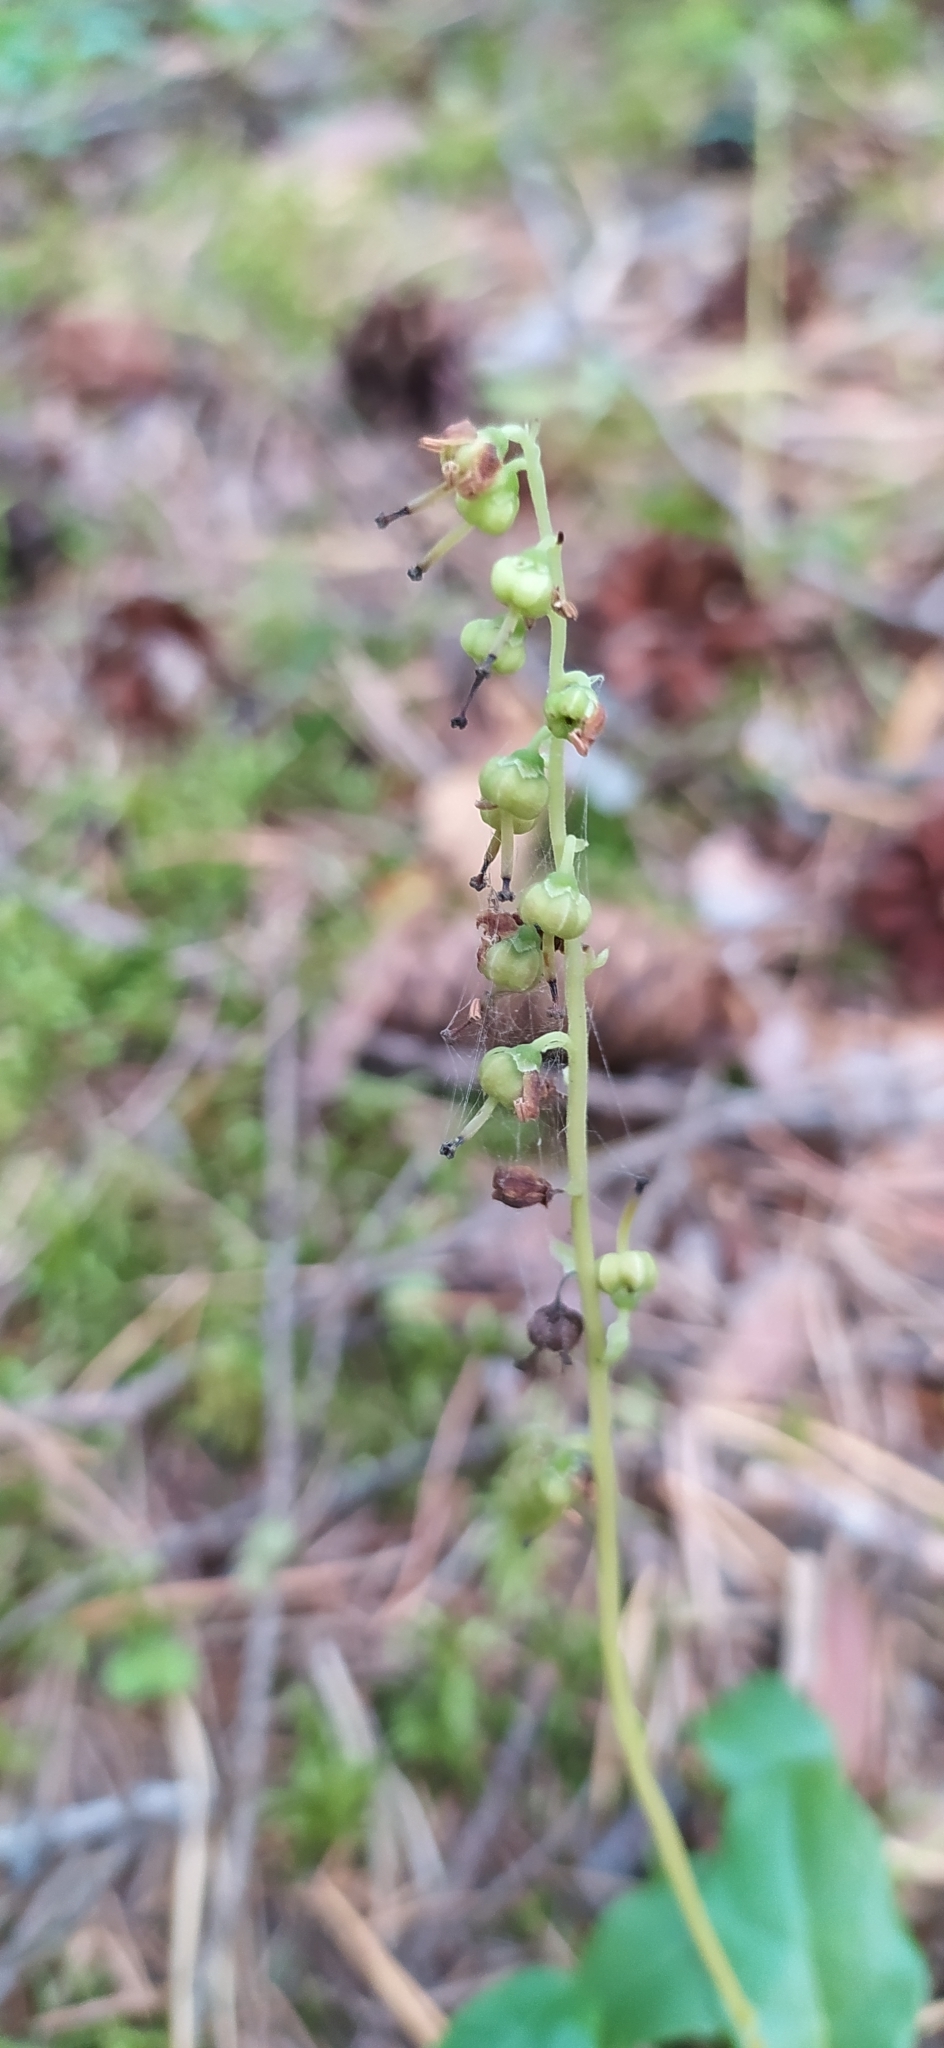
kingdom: Plantae
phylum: Tracheophyta
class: Magnoliopsida
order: Ericales
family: Ericaceae
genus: Orthilia
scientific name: Orthilia secunda
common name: One-sided orthilia
